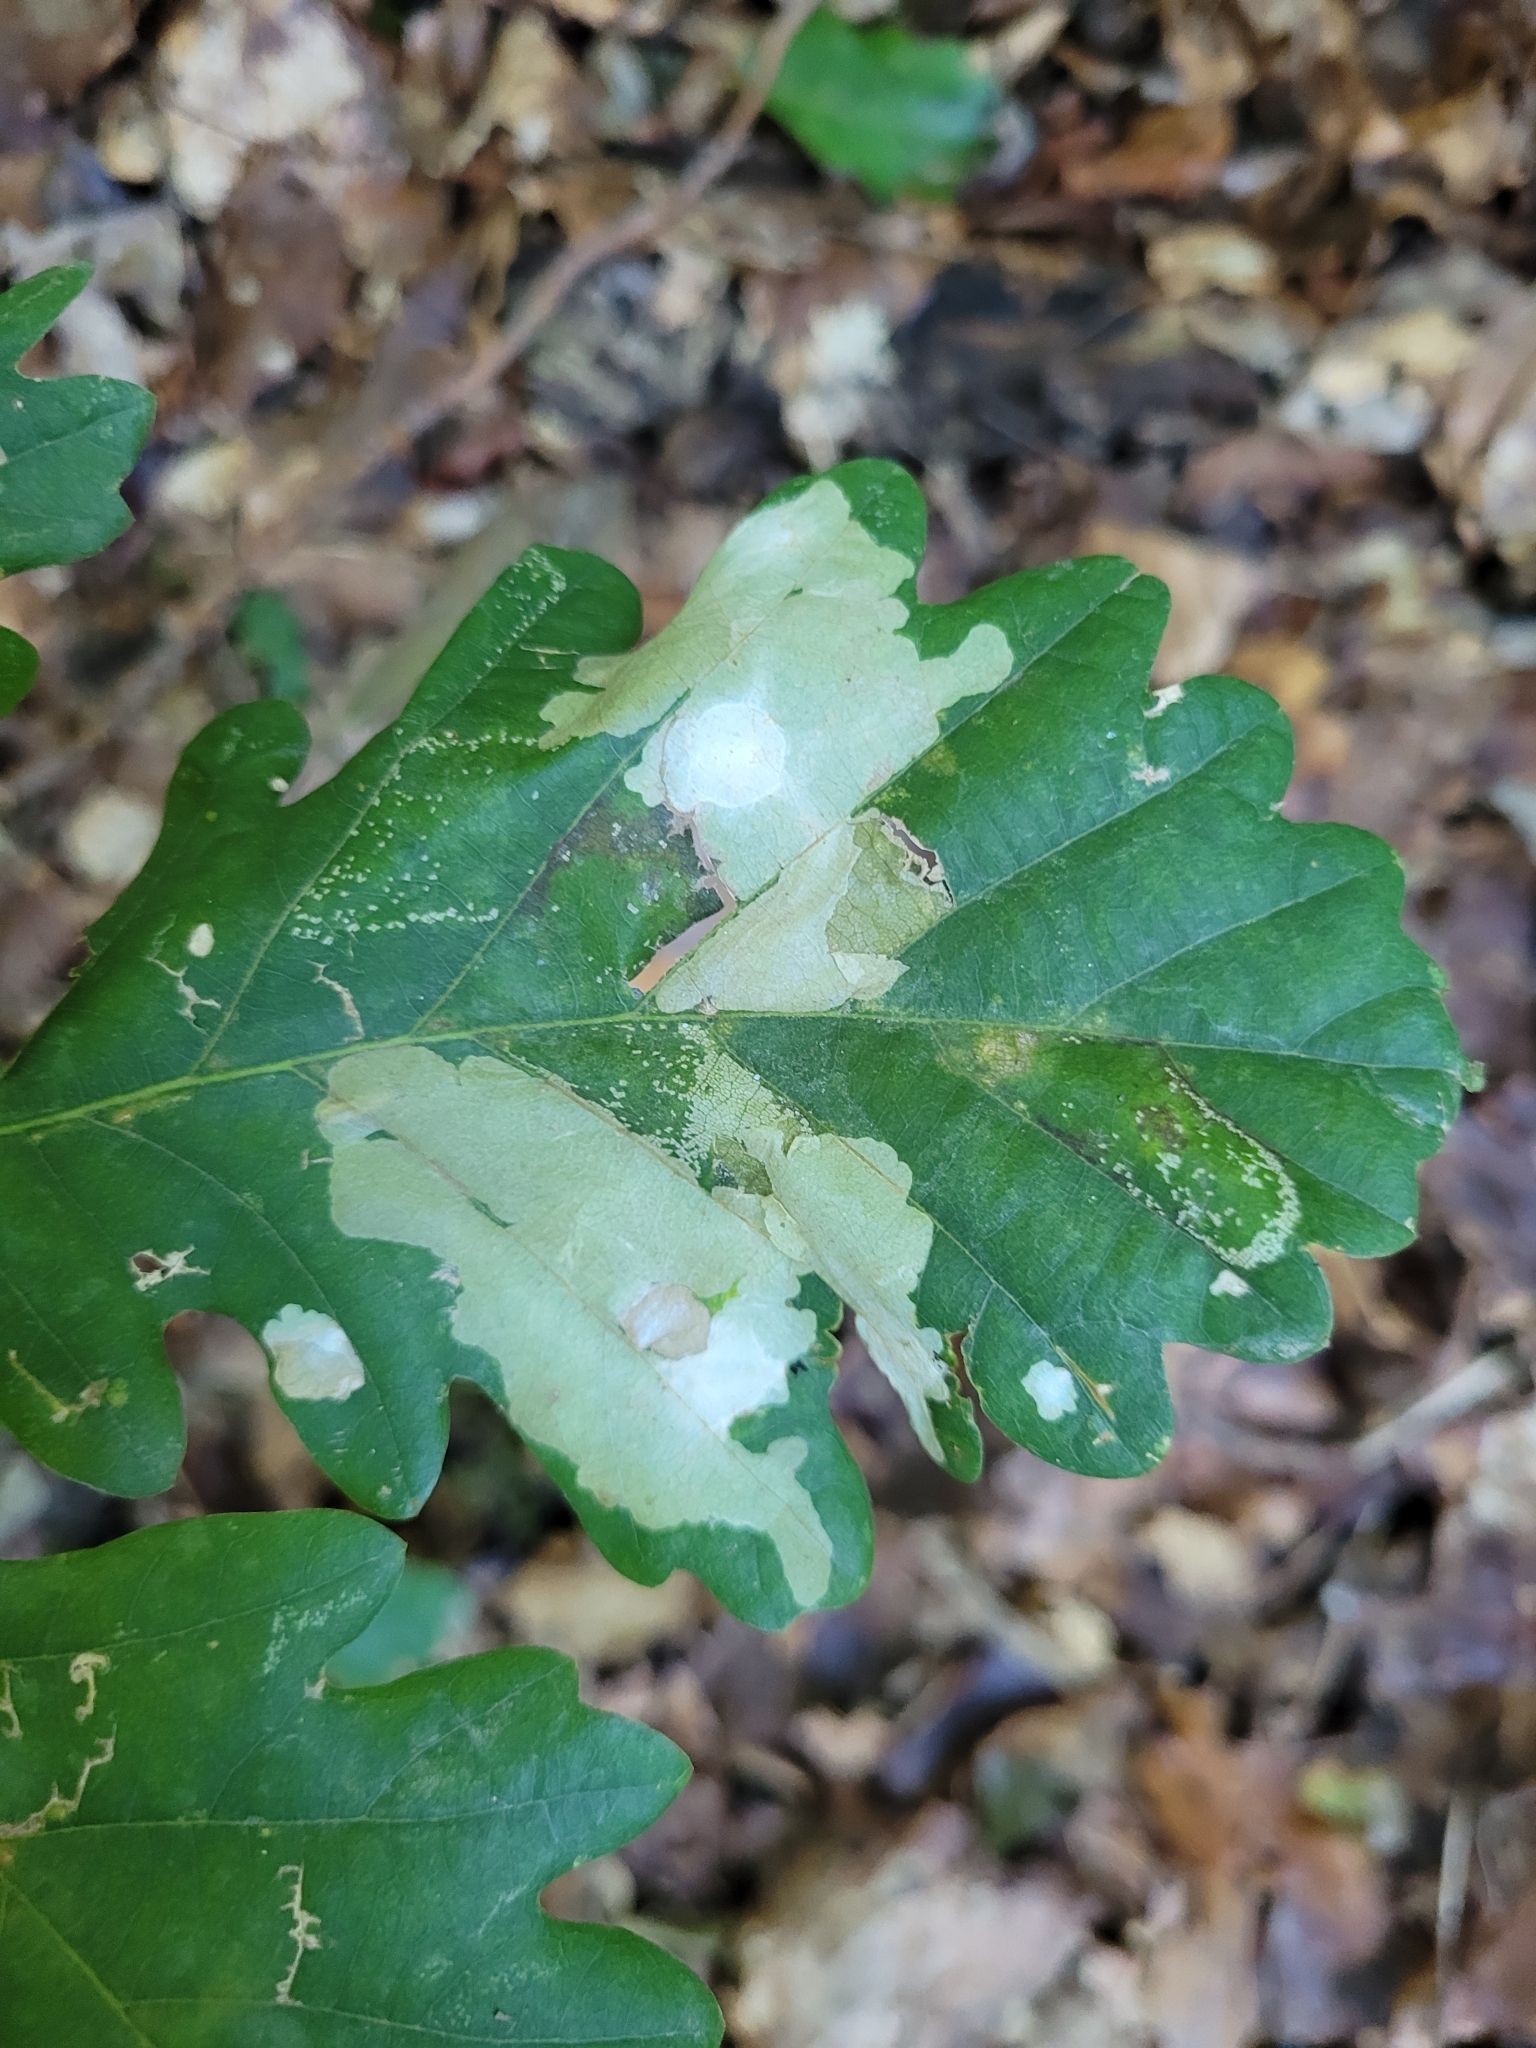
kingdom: Animalia
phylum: Arthropoda
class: Insecta
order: Lepidoptera
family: Tischeriidae
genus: Tischeria
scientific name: Tischeria ekebladella
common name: Oak carl
